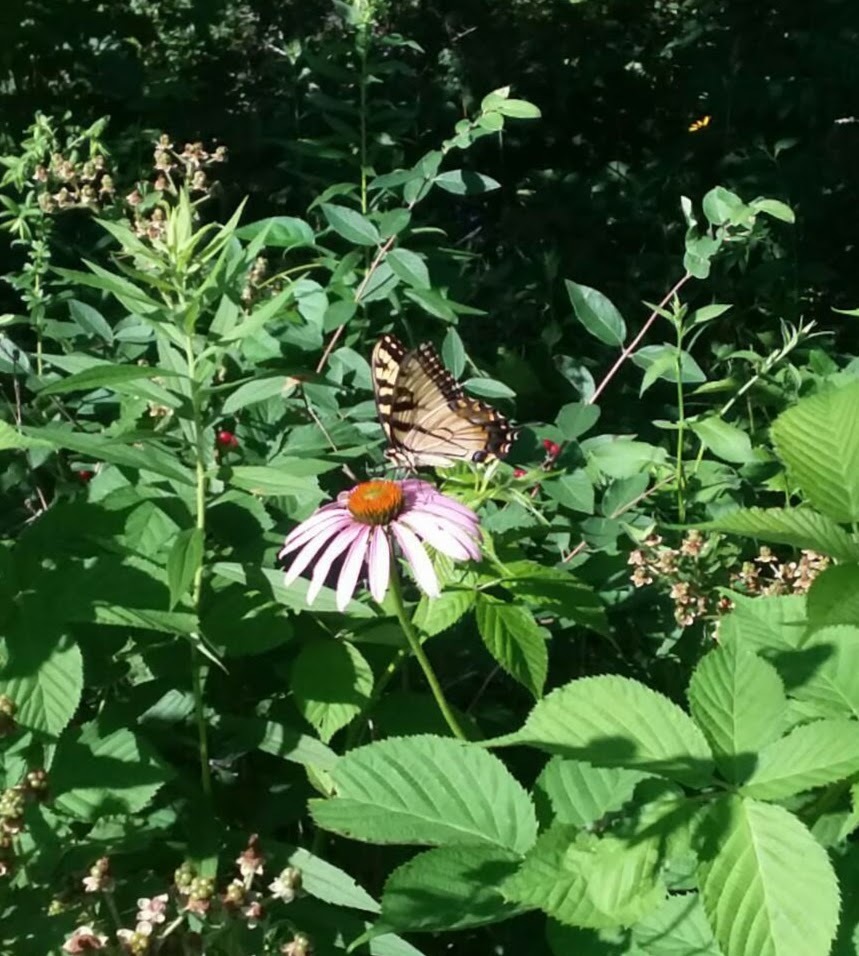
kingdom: Animalia
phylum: Arthropoda
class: Insecta
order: Lepidoptera
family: Papilionidae
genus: Papilio
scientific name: Papilio glaucus
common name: Tiger swallowtail
